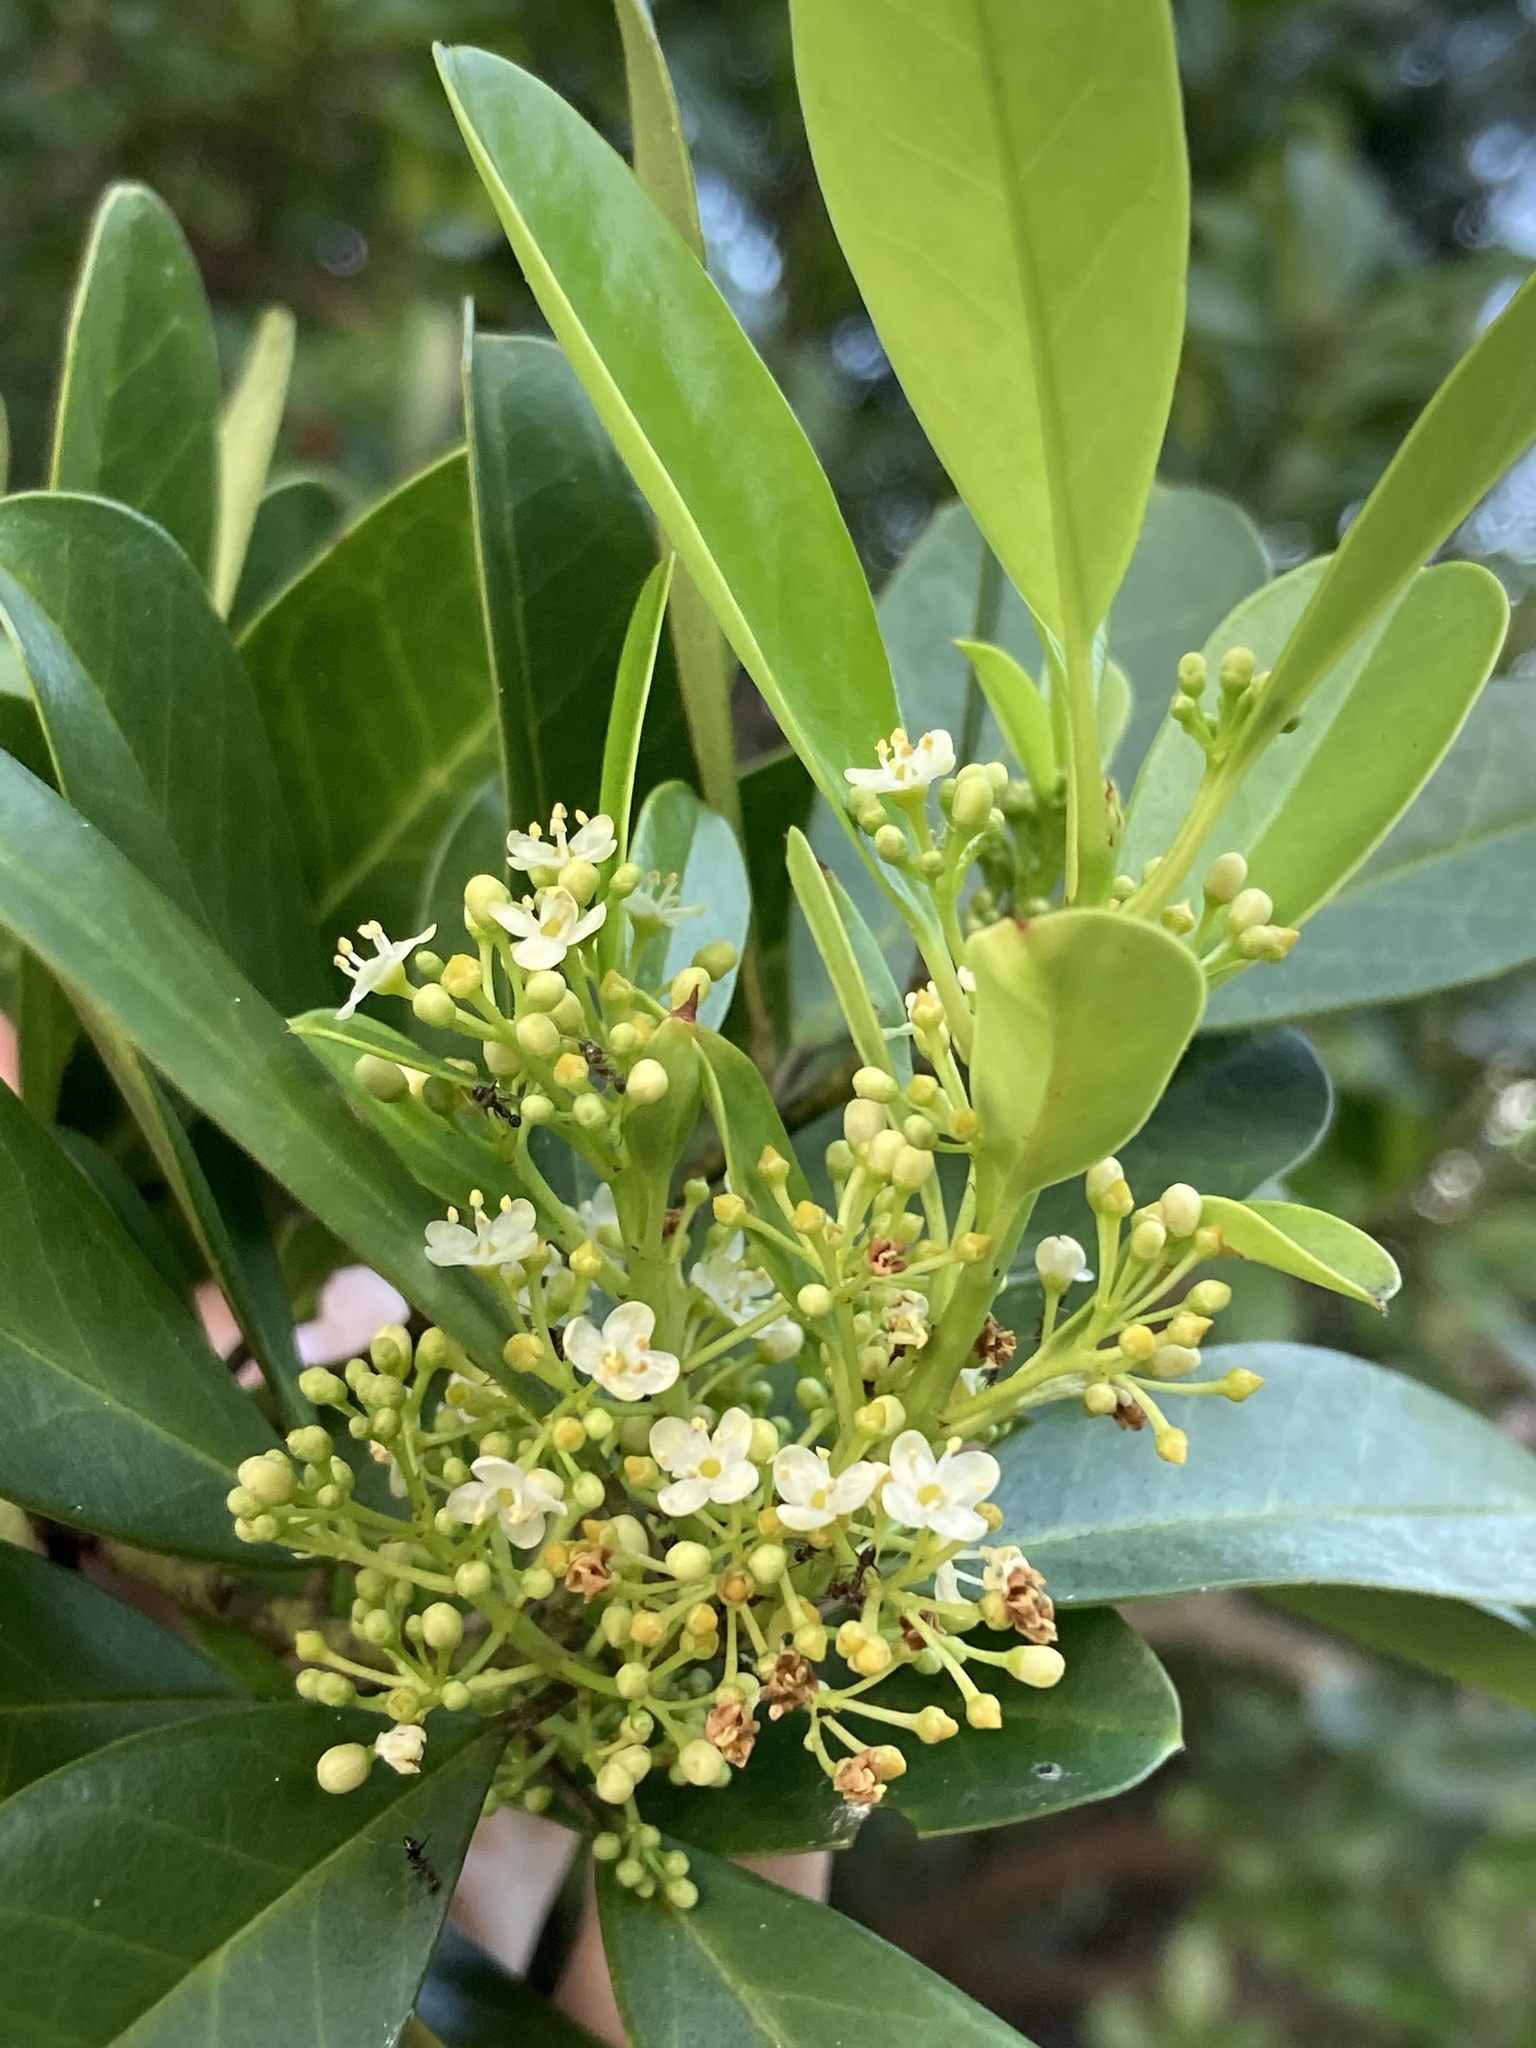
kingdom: Plantae
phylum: Tracheophyta
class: Magnoliopsida
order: Aquifoliales
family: Aquifoliaceae
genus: Ilex
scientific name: Ilex cassine
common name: Dahoon
